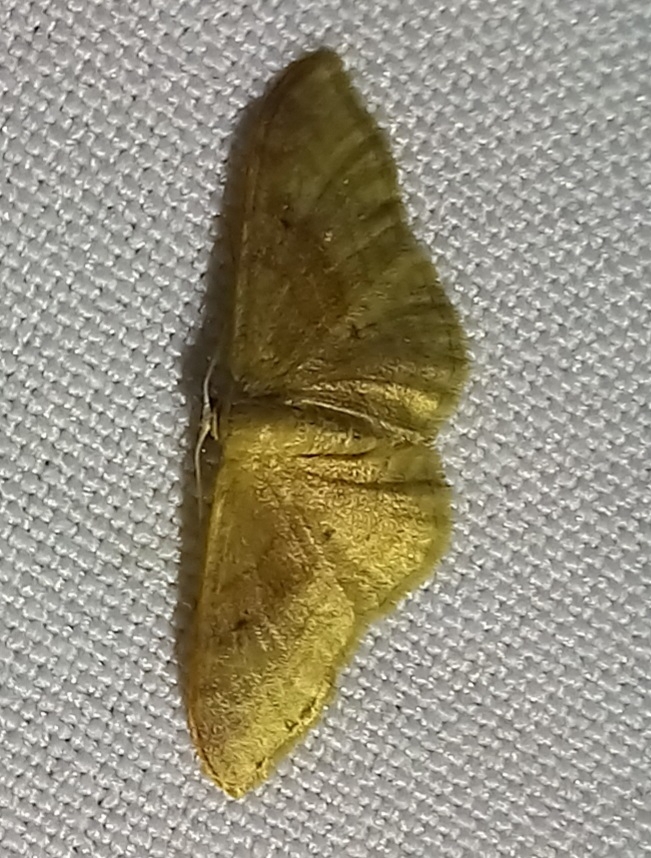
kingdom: Animalia
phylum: Arthropoda
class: Insecta
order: Lepidoptera
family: Geometridae
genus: Idaea
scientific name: Idaea degeneraria
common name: Portland ribbon wave
